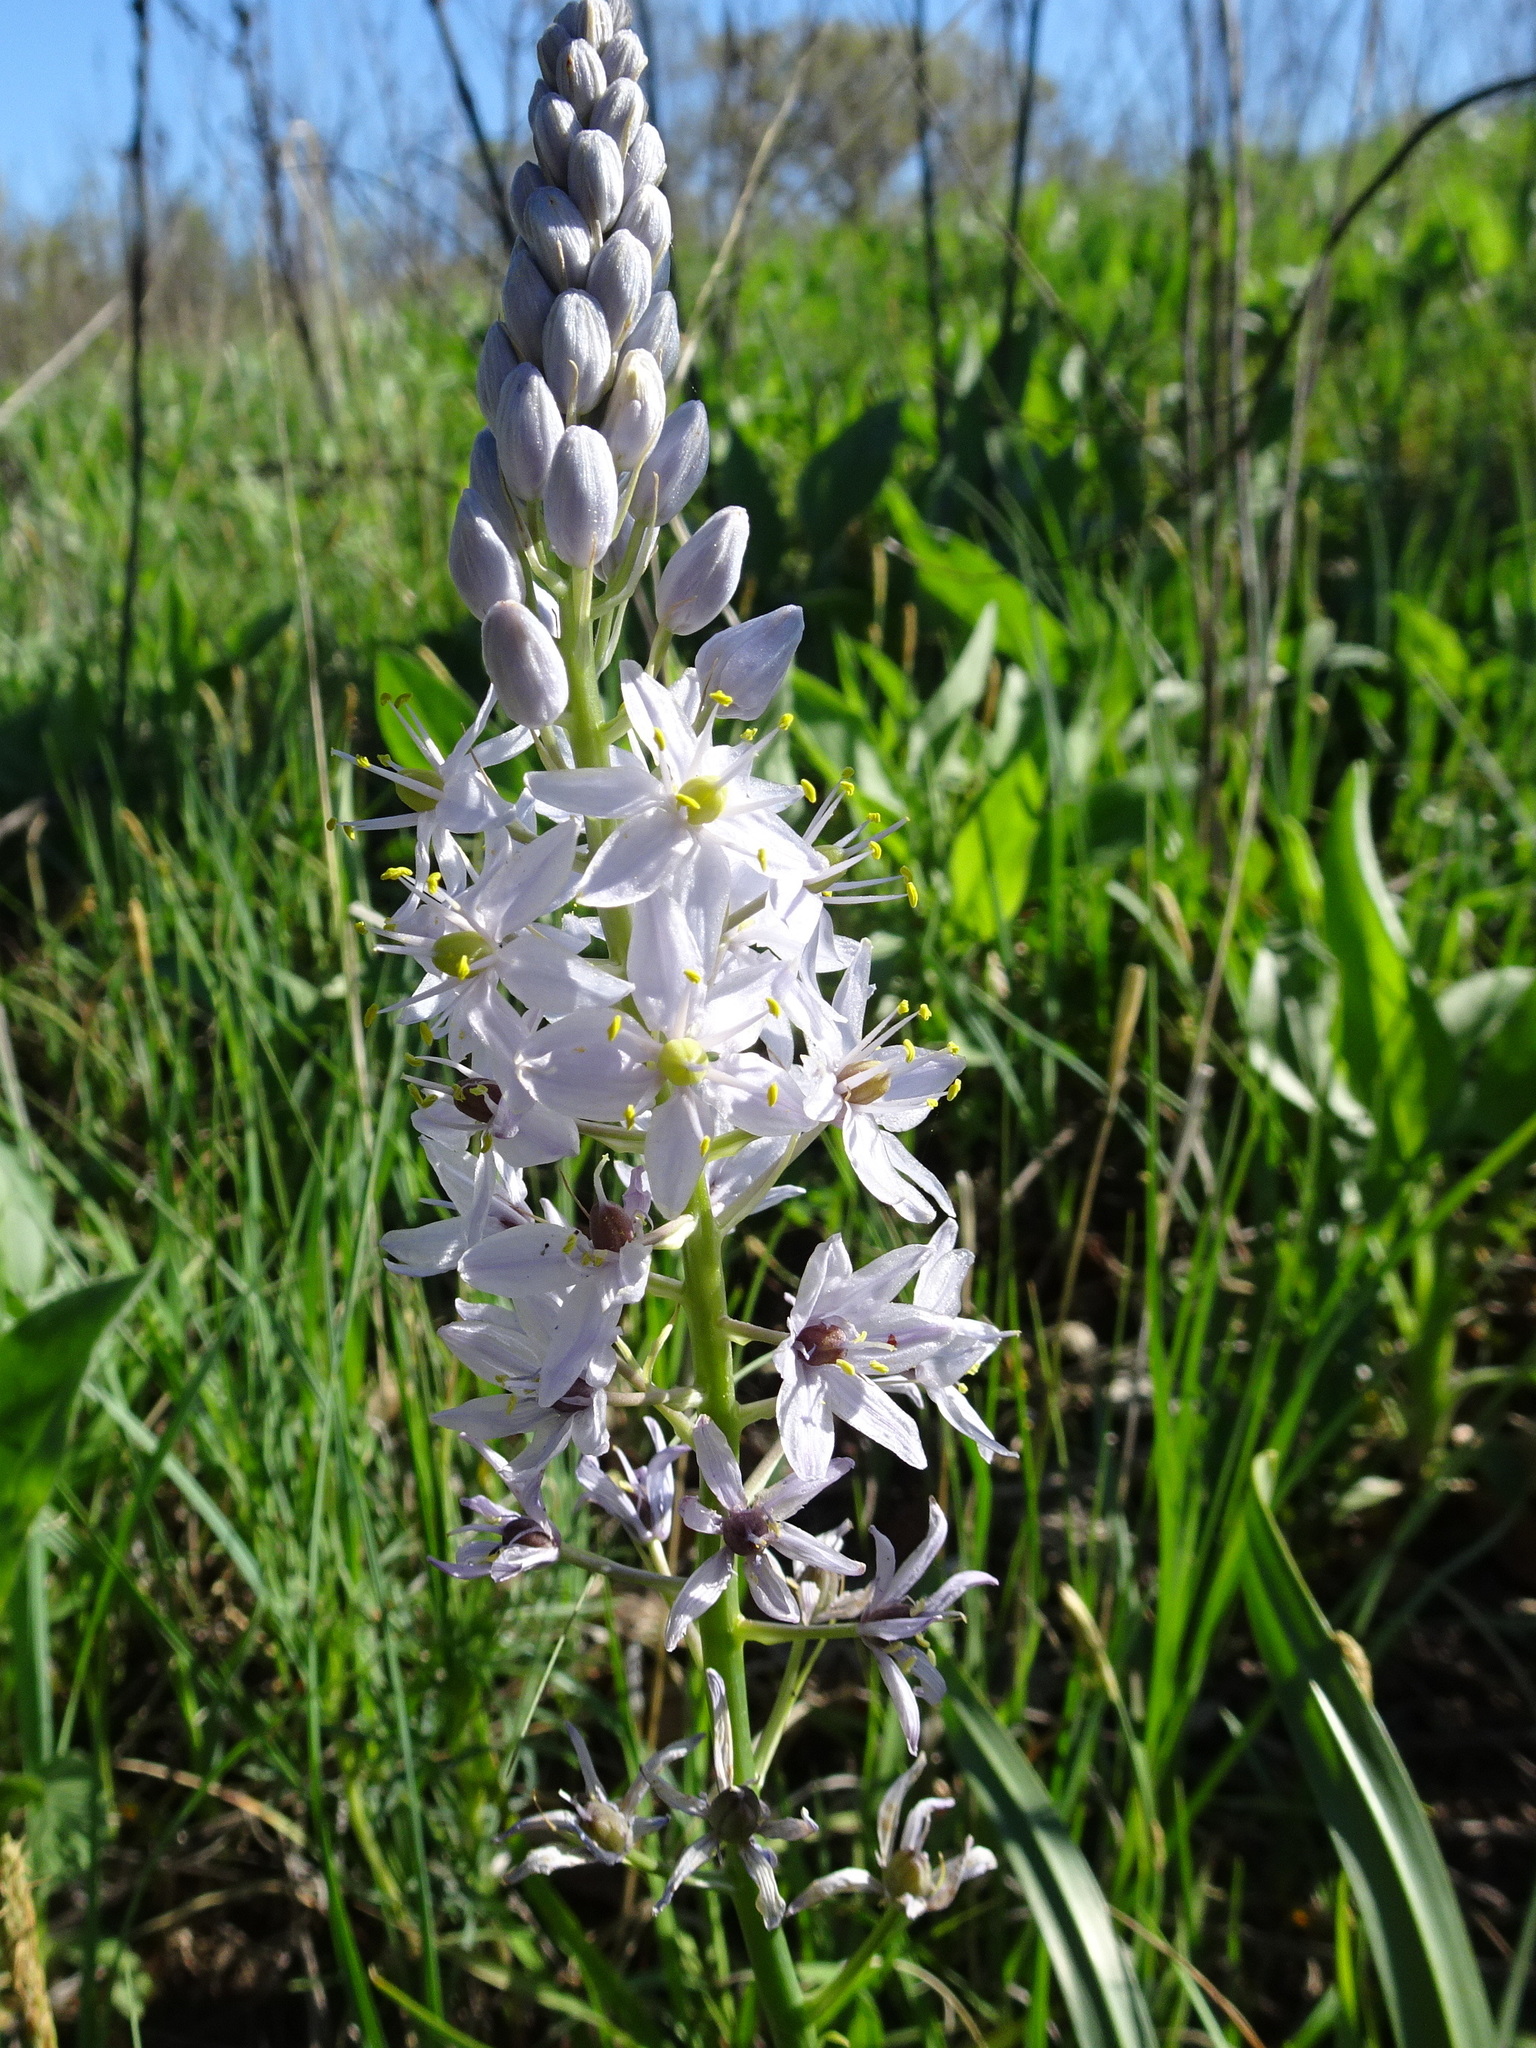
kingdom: Plantae
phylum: Tracheophyta
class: Liliopsida
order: Asparagales
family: Asparagaceae
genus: Camassia
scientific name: Camassia scilloides
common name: Wild hyacinth
